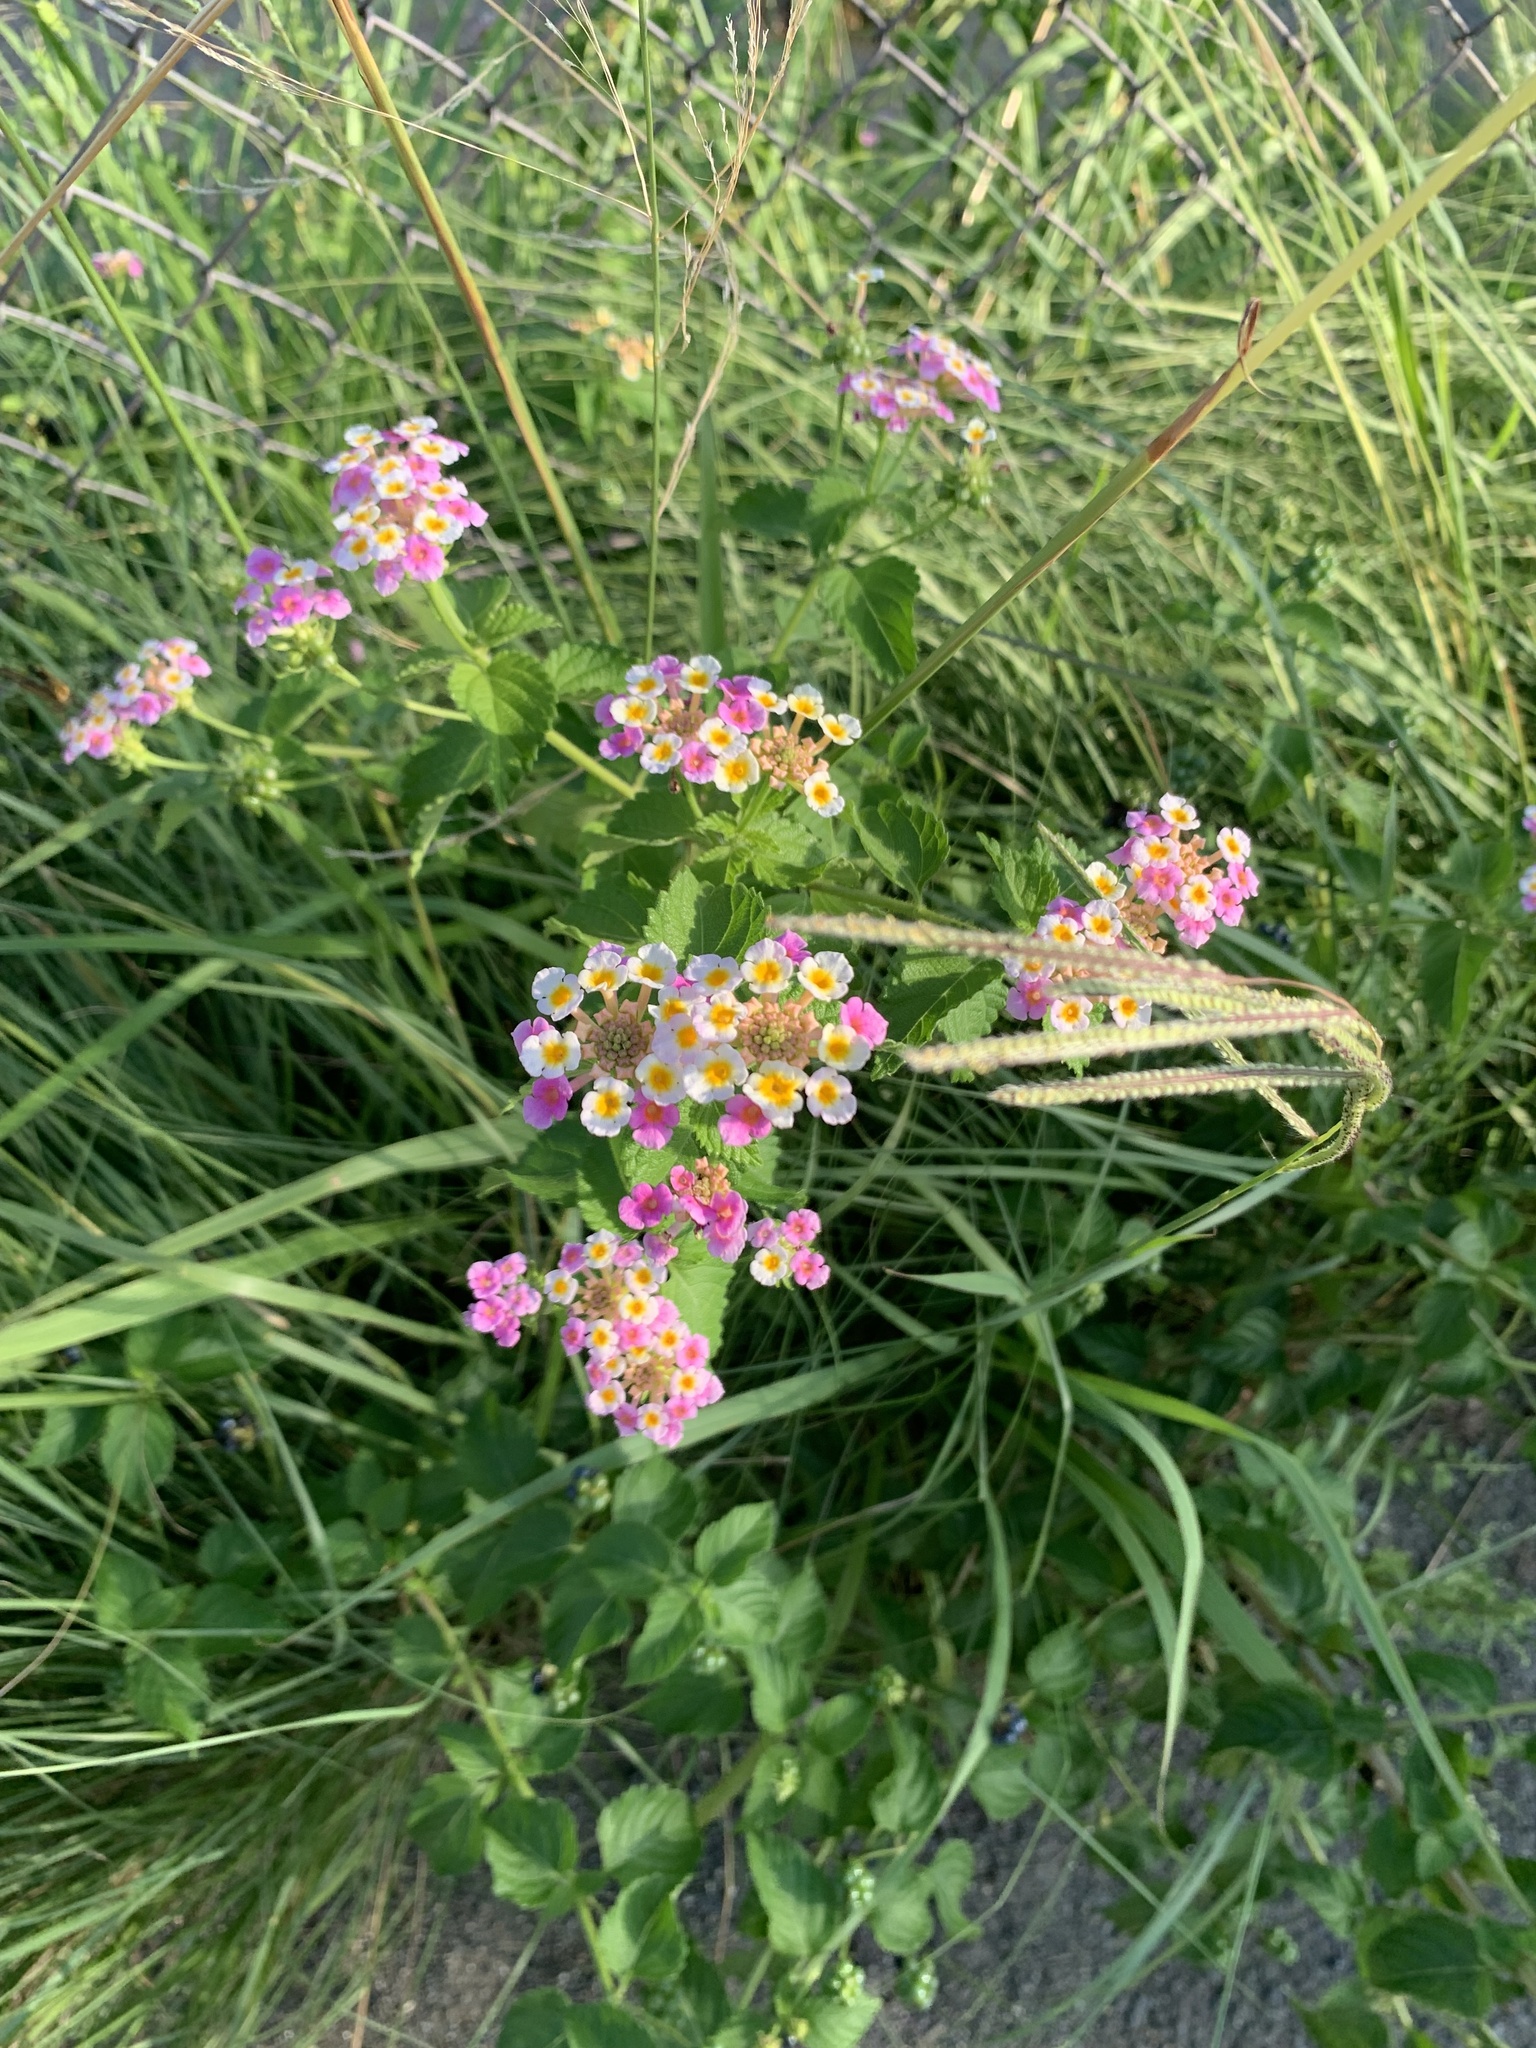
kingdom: Plantae
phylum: Tracheophyta
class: Magnoliopsida
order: Lamiales
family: Verbenaceae
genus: Lantana
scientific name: Lantana camara
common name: Lantana
